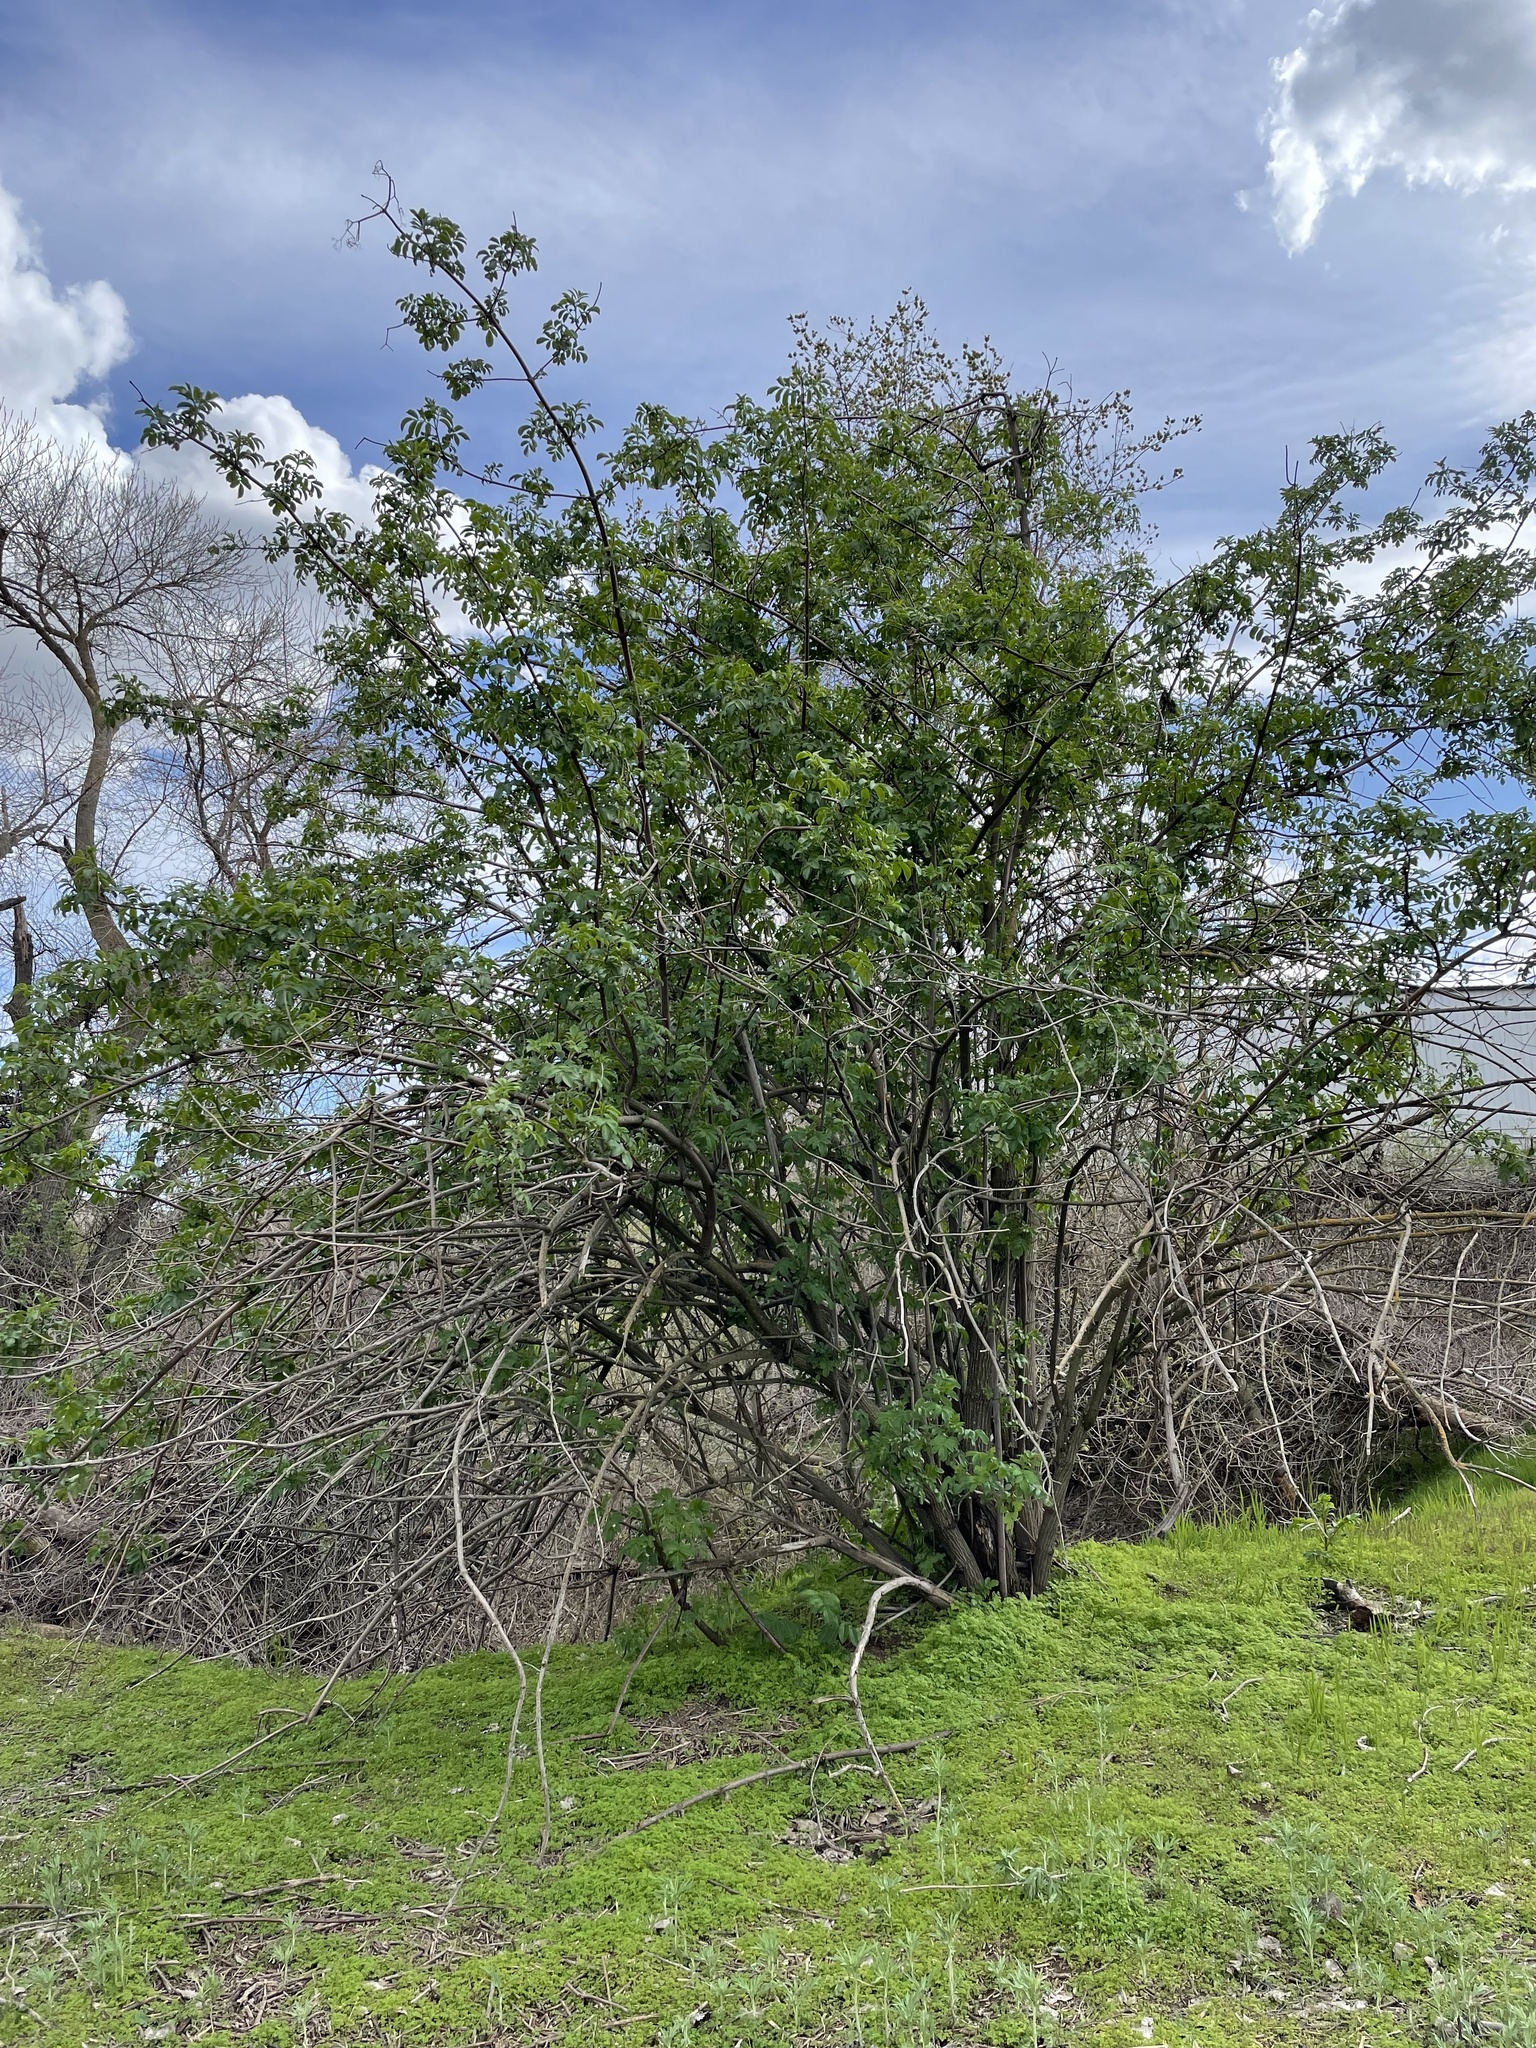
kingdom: Plantae
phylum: Tracheophyta
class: Magnoliopsida
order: Dipsacales
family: Viburnaceae
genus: Sambucus
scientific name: Sambucus cerulea
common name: Blue elder
